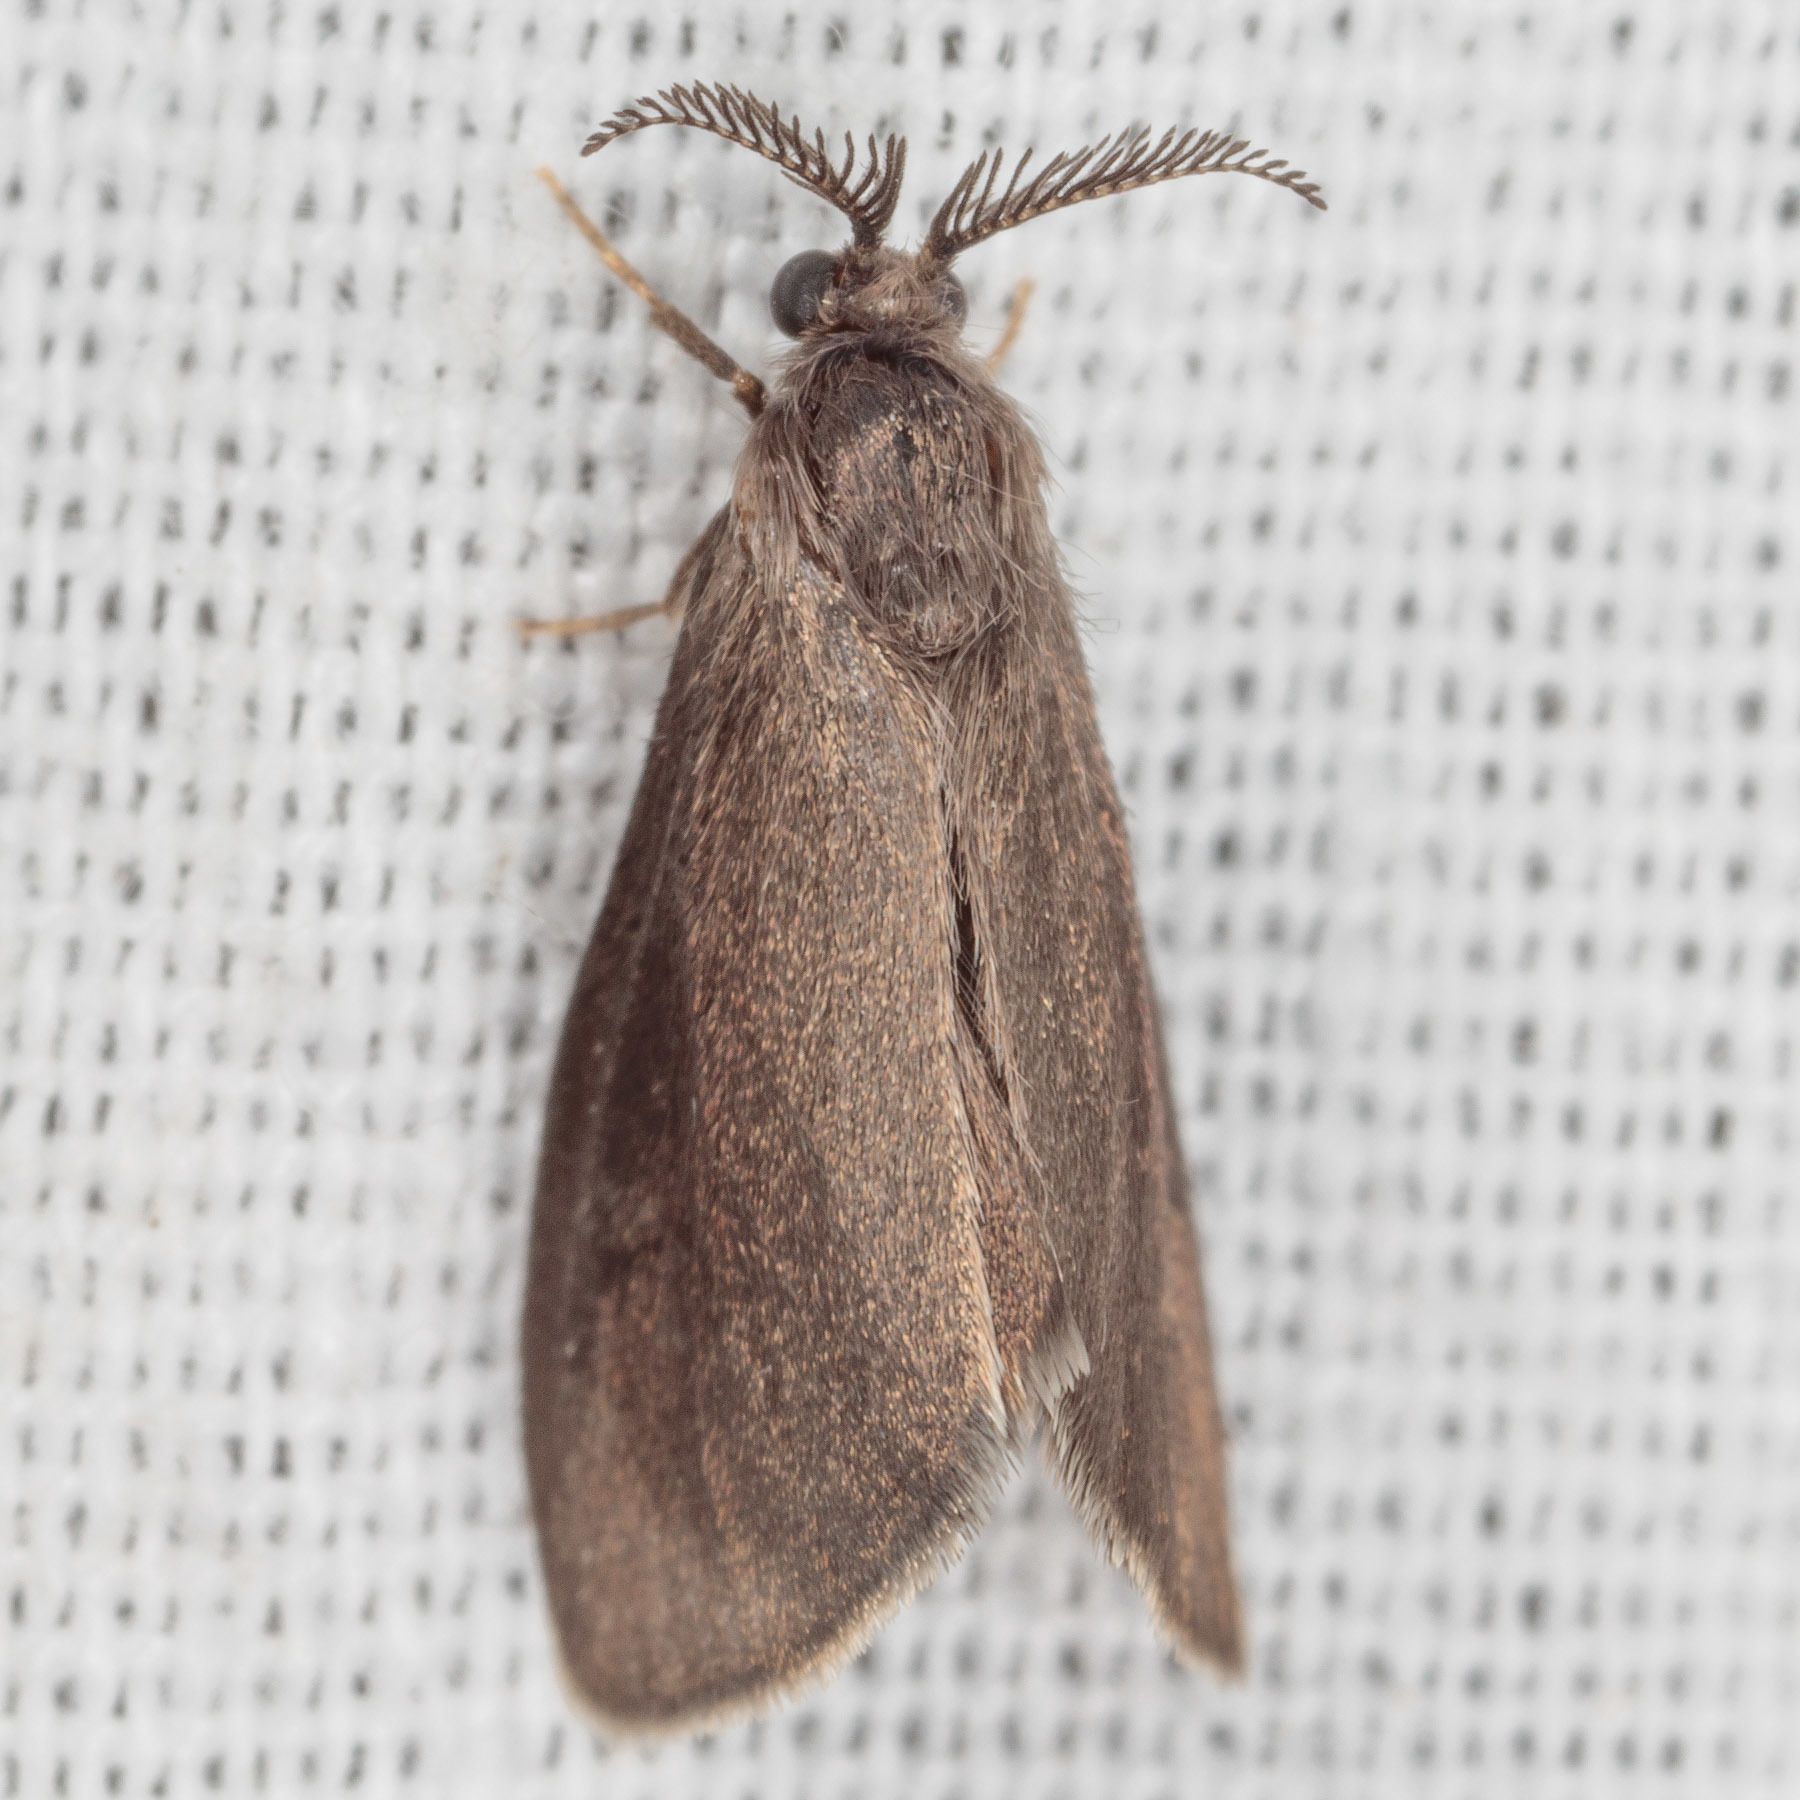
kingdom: Animalia
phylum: Arthropoda
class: Insecta
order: Lepidoptera
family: Psychidae
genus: Cryptothelea
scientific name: Cryptothelea gloverii
